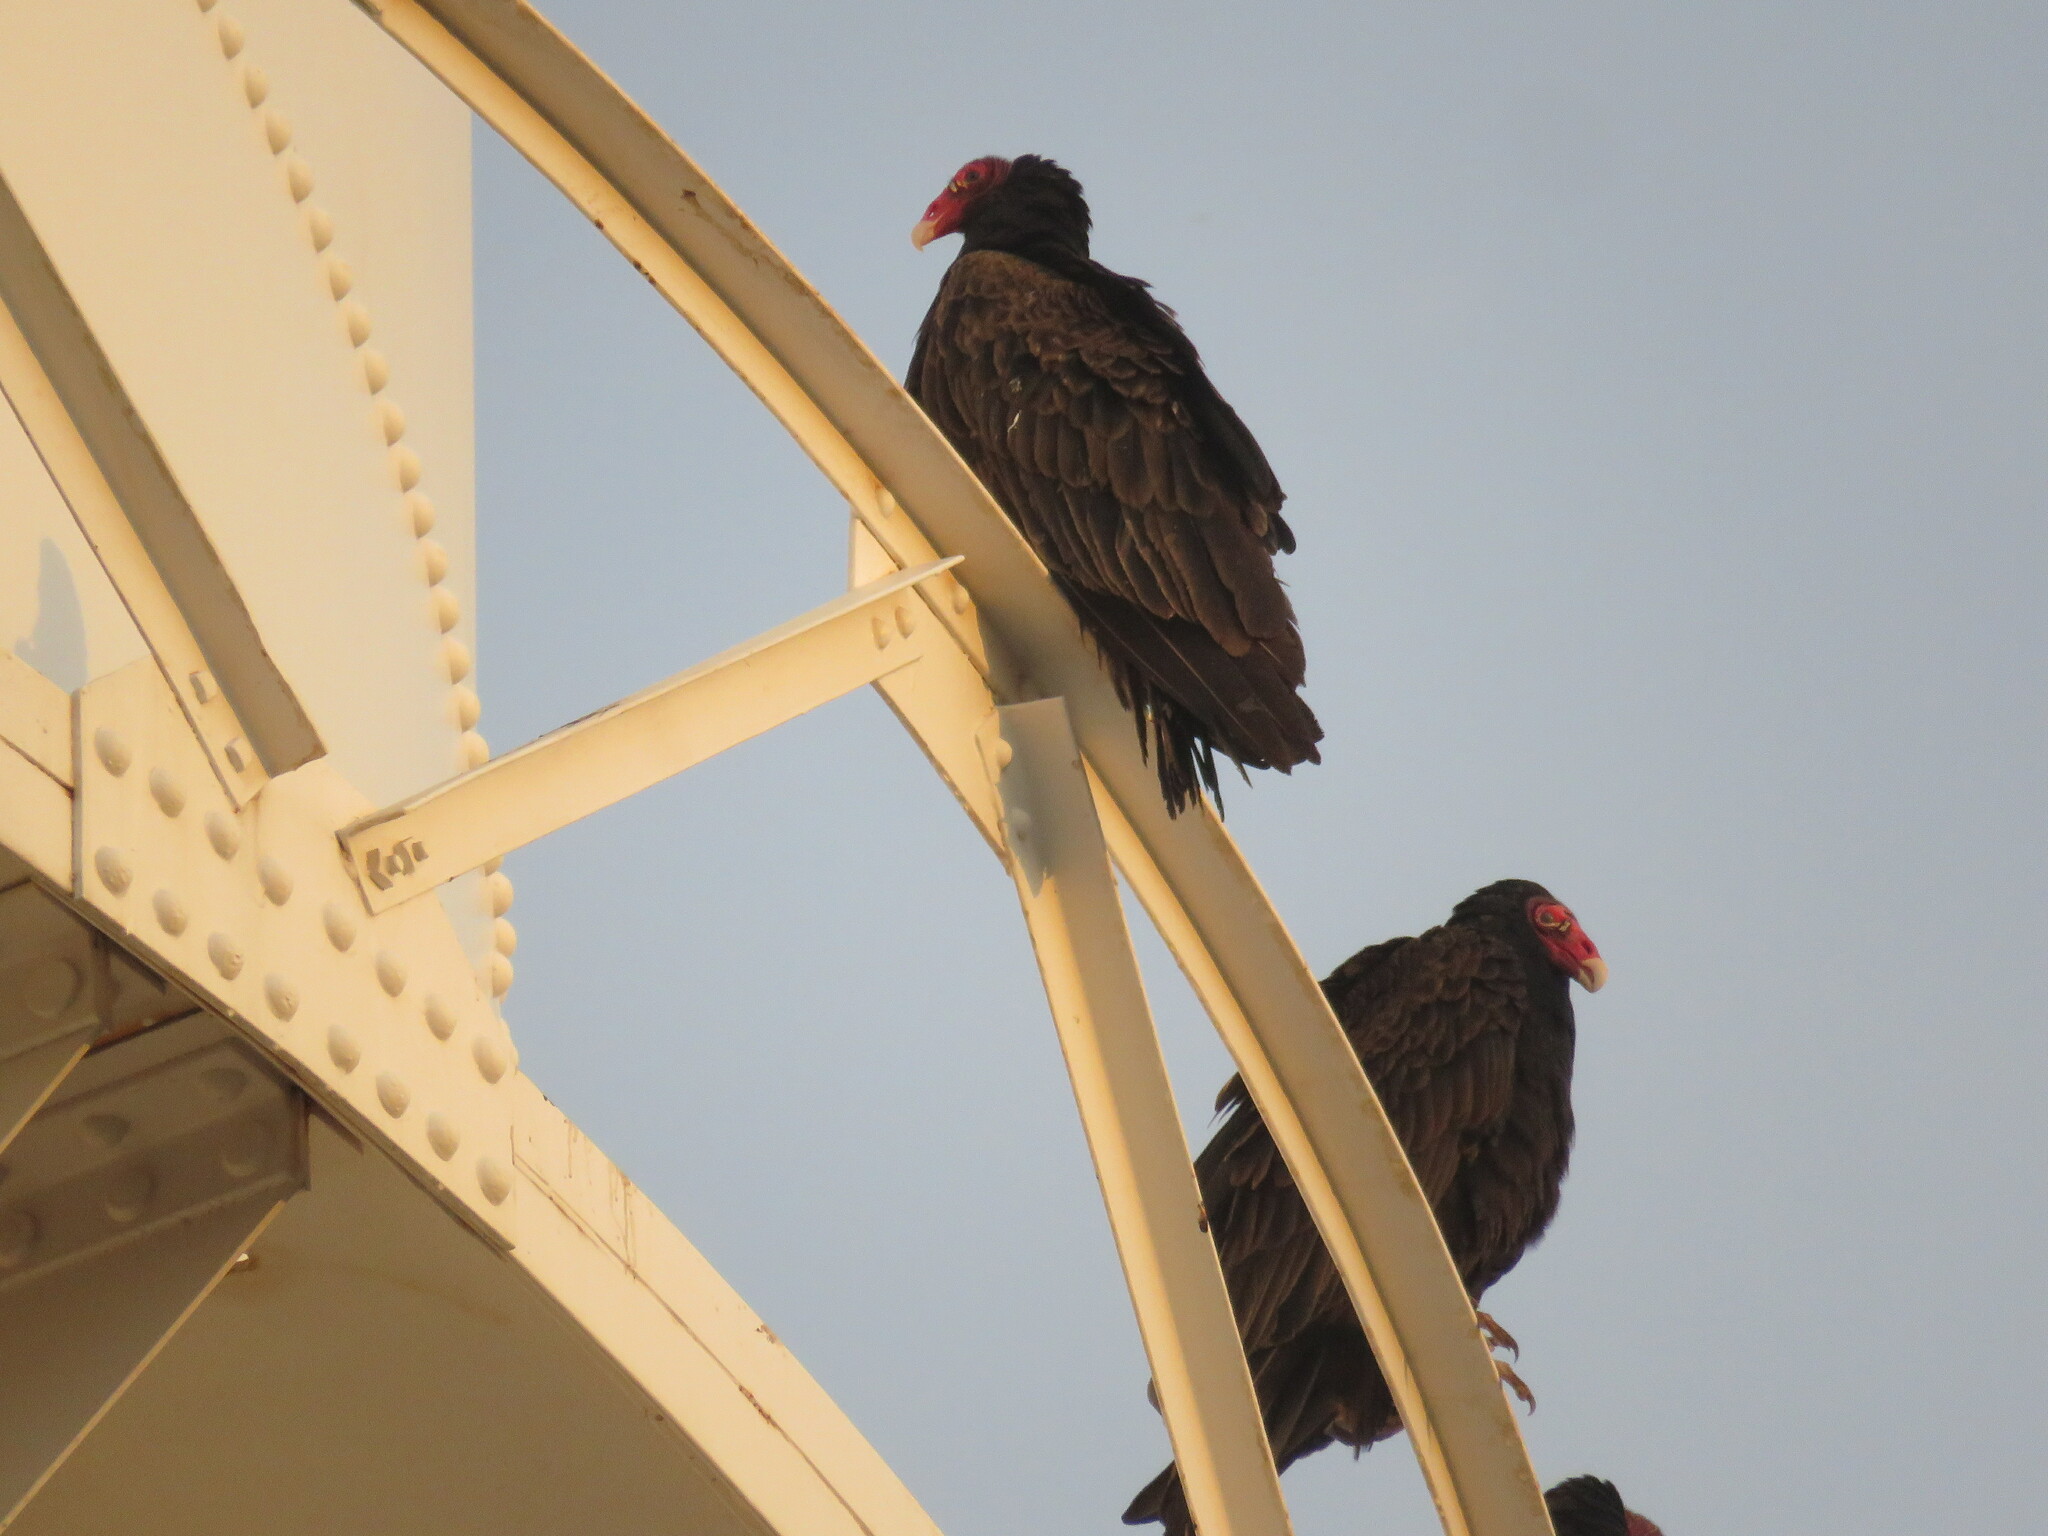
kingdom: Animalia
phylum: Chordata
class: Aves
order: Accipitriformes
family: Cathartidae
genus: Cathartes
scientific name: Cathartes aura
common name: Turkey vulture
